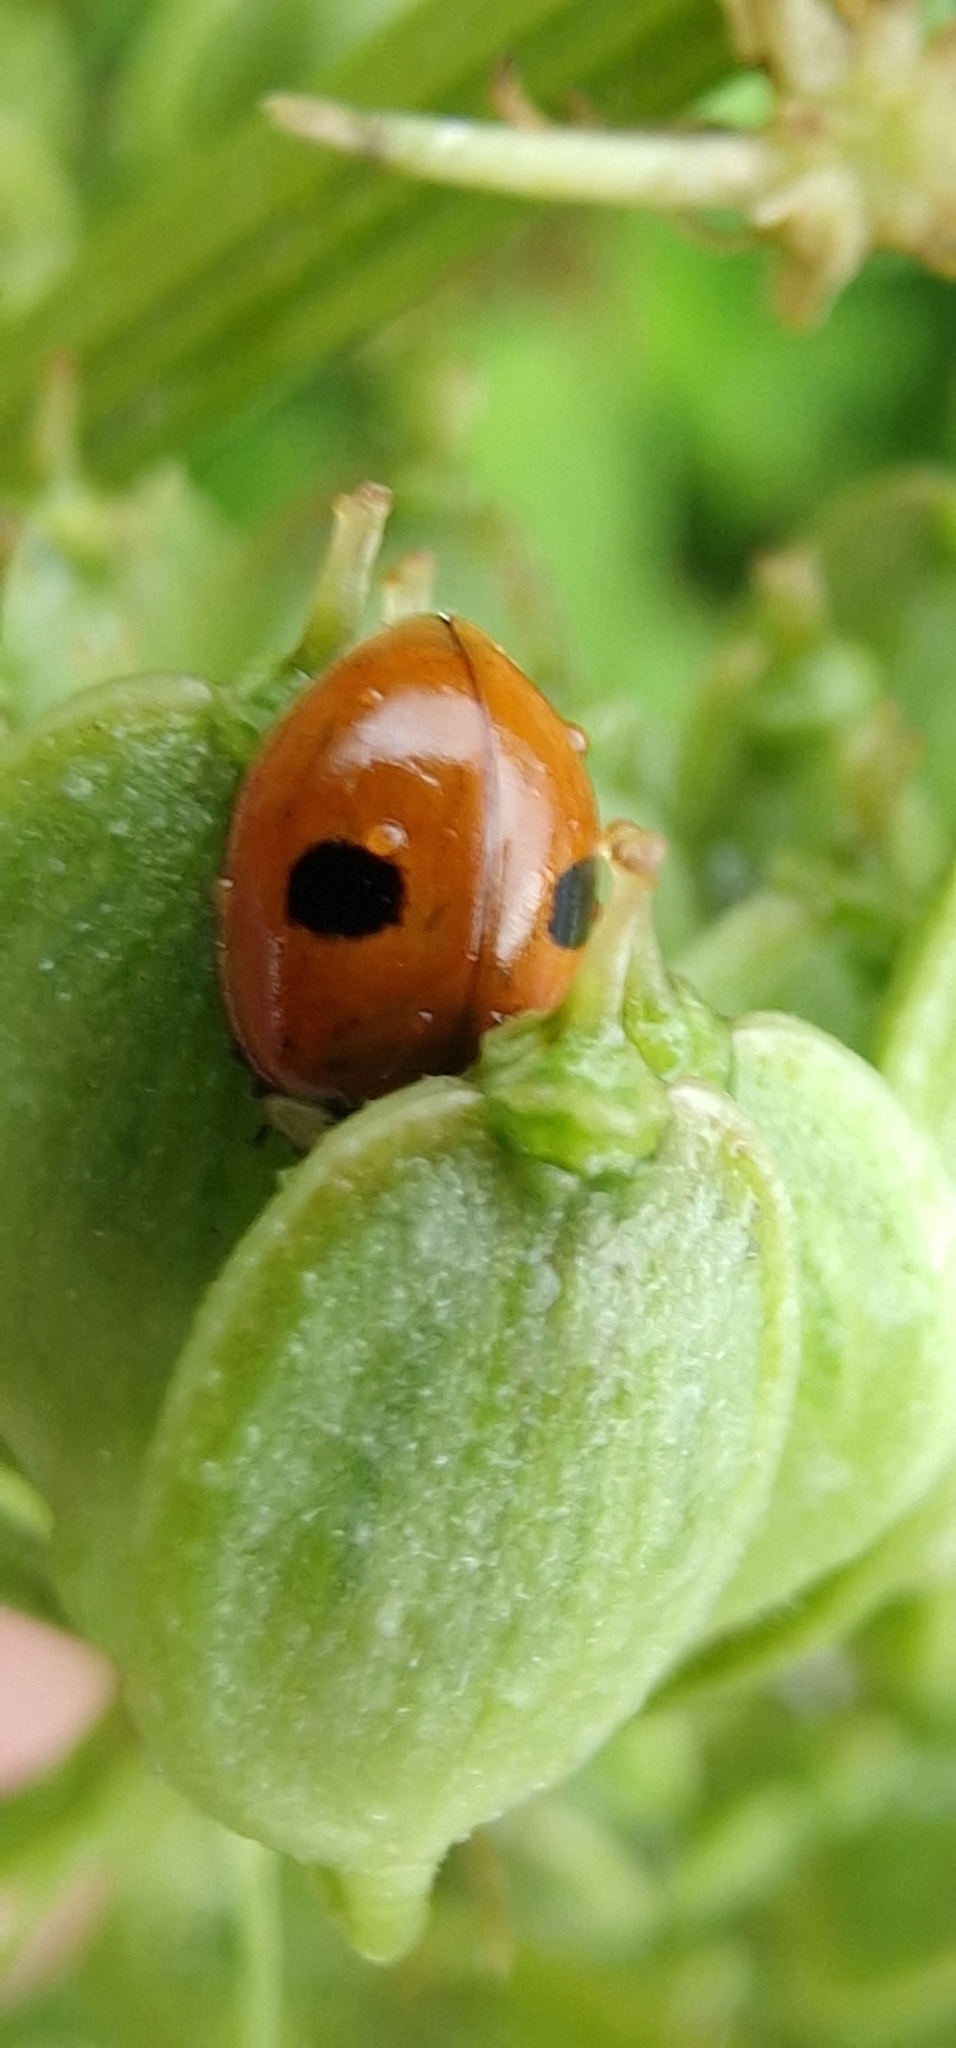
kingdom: Animalia
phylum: Arthropoda
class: Insecta
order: Coleoptera
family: Coccinellidae
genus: Adalia
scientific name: Adalia bipunctata
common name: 2-spot ladybird
